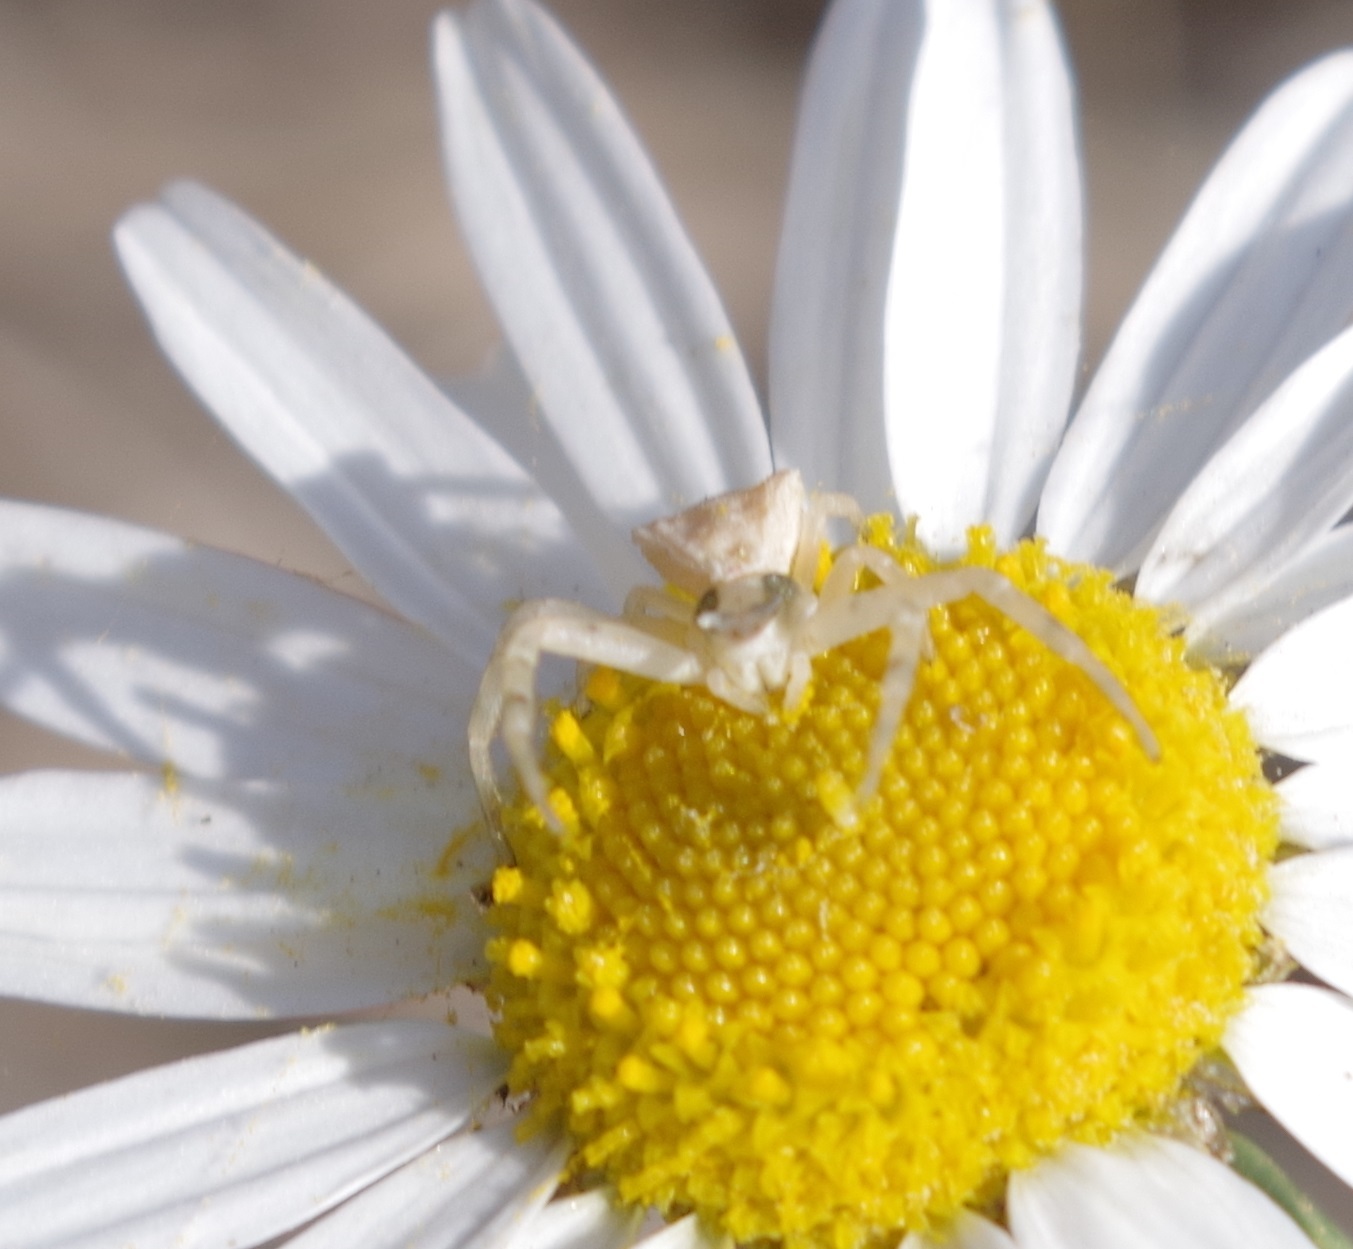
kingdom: Animalia
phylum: Arthropoda
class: Arachnida
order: Araneae
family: Thomisidae
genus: Thomisus
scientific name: Thomisus onustus
